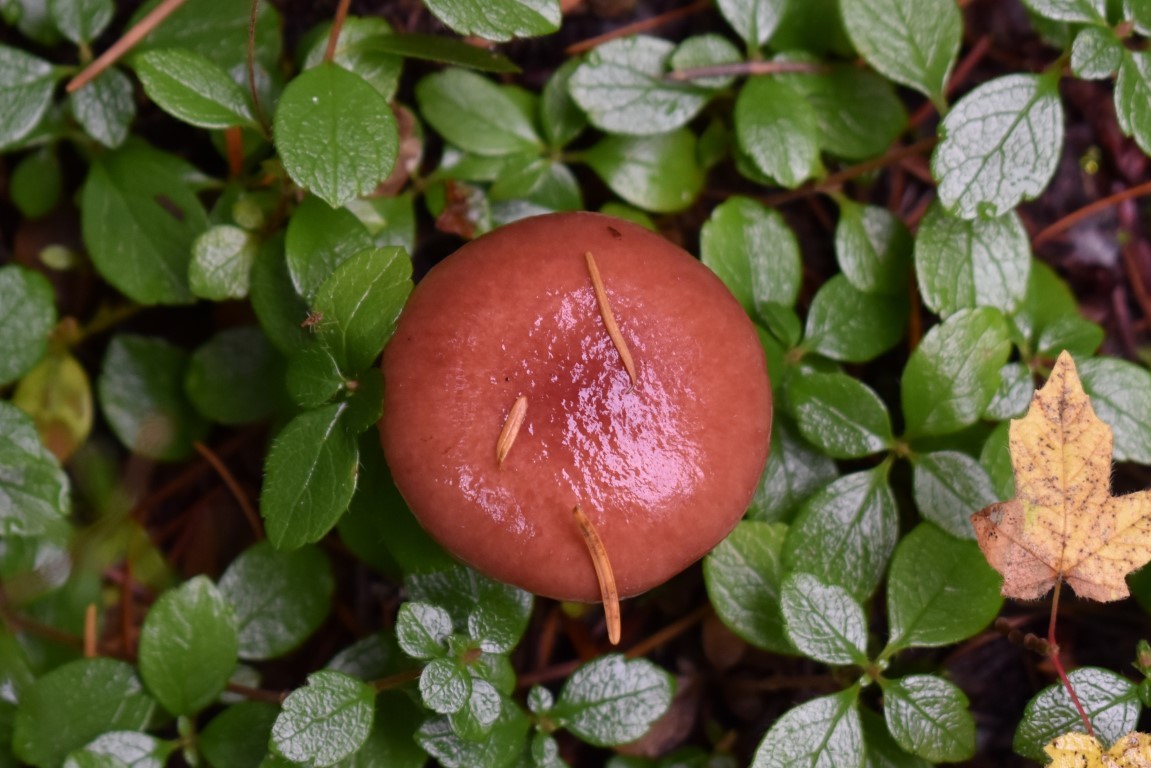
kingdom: Fungi
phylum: Basidiomycota
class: Agaricomycetes
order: Boletales
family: Gomphidiaceae
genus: Gomphidius
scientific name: Gomphidius subroseus
